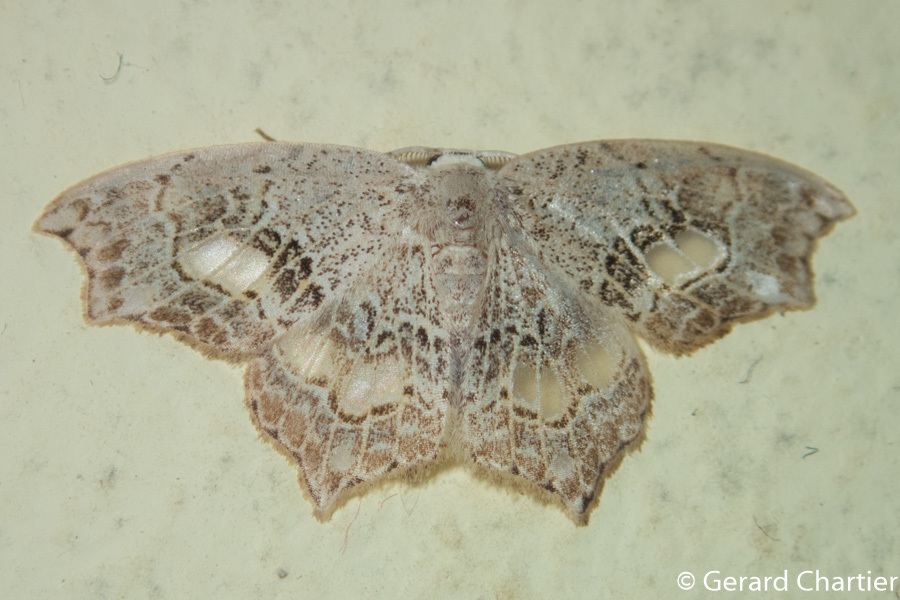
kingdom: Animalia
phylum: Arthropoda
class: Insecta
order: Lepidoptera
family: Drepanidae
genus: Hyalospectra
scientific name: Hyalospectra altipustularia
